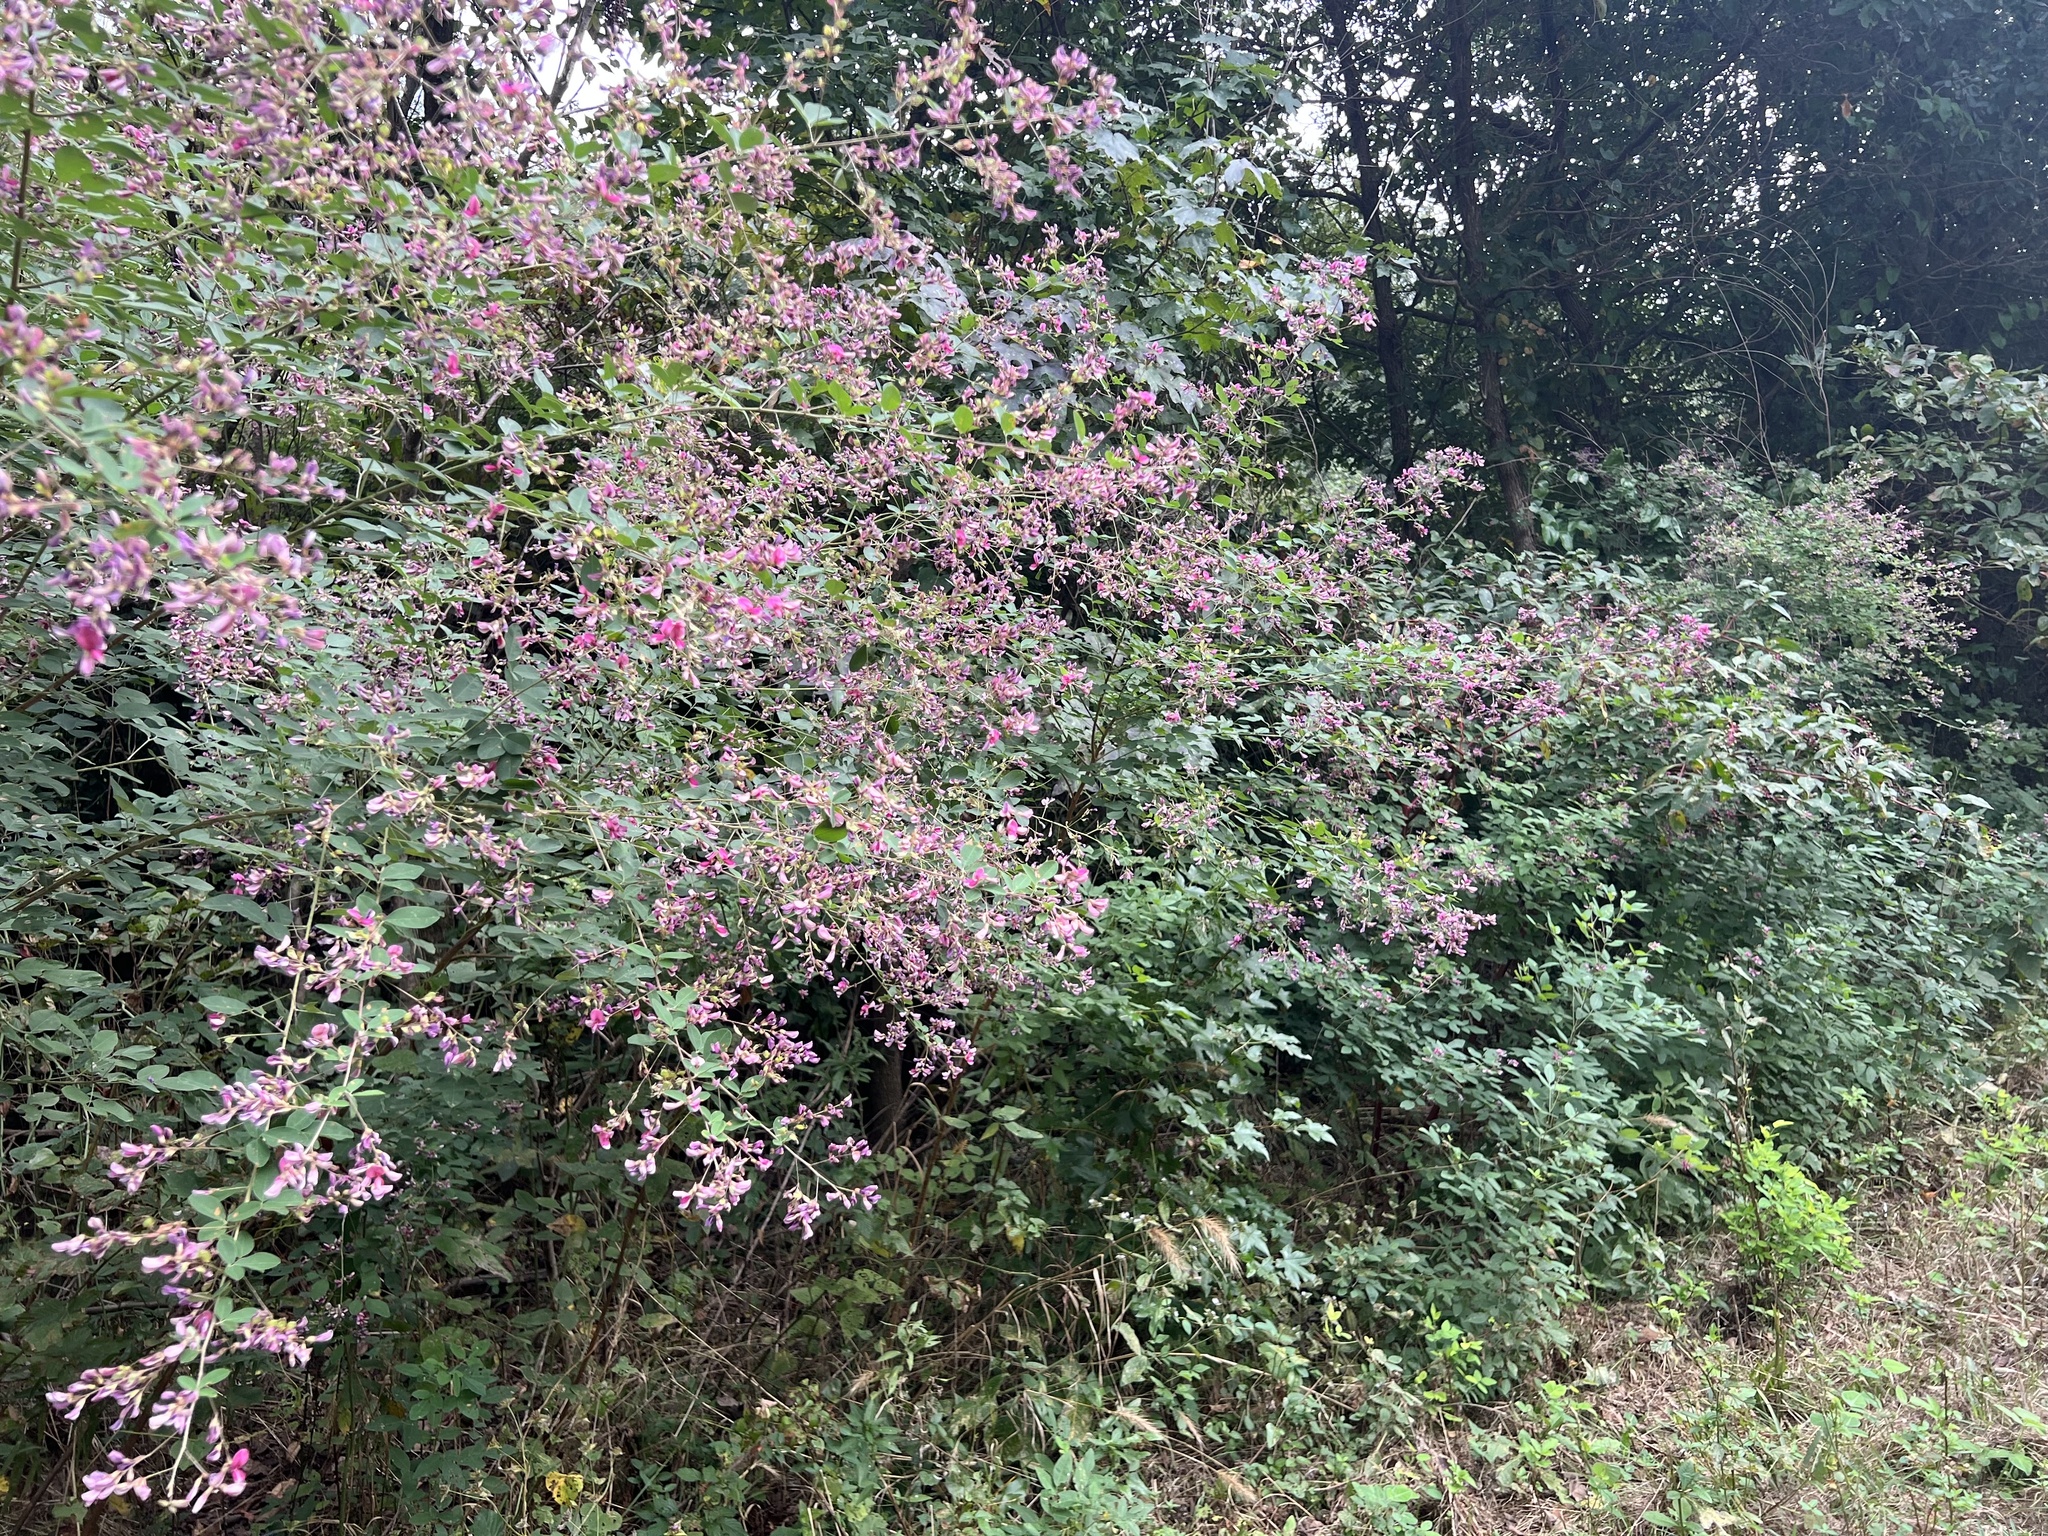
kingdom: Plantae
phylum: Tracheophyta
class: Magnoliopsida
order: Fabales
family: Fabaceae
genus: Lespedeza
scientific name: Lespedeza bicolor
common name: Shrub lespedeza
